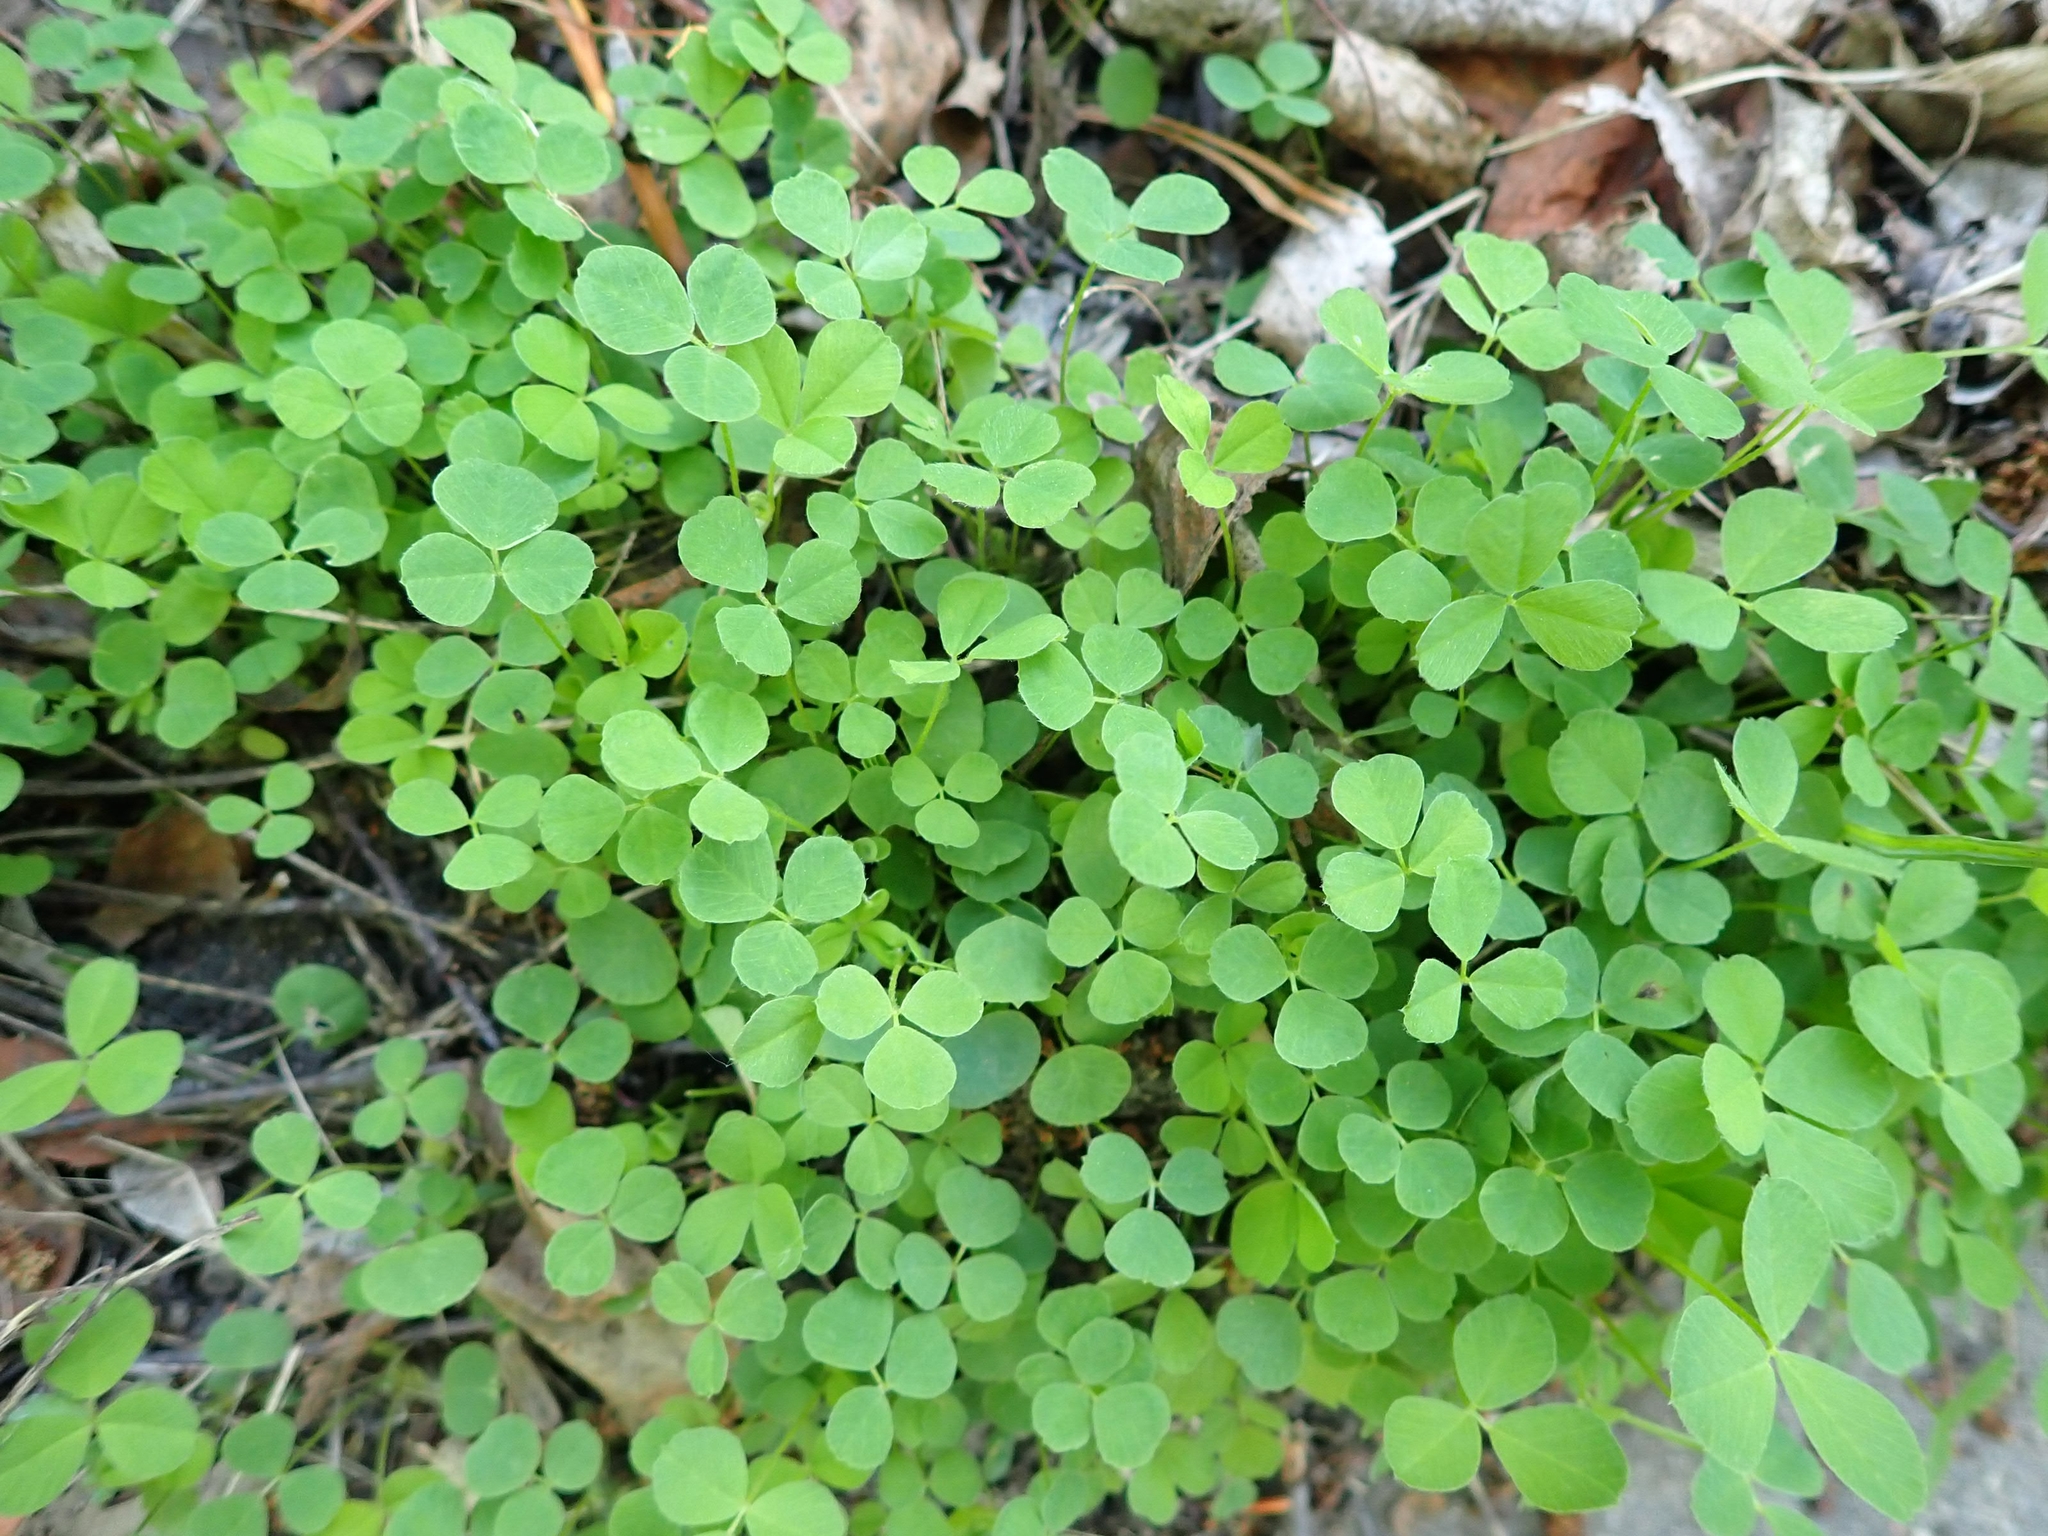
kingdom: Plantae
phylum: Tracheophyta
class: Magnoliopsida
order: Fabales
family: Fabaceae
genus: Medicago
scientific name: Medicago lupulina
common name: Black medick
